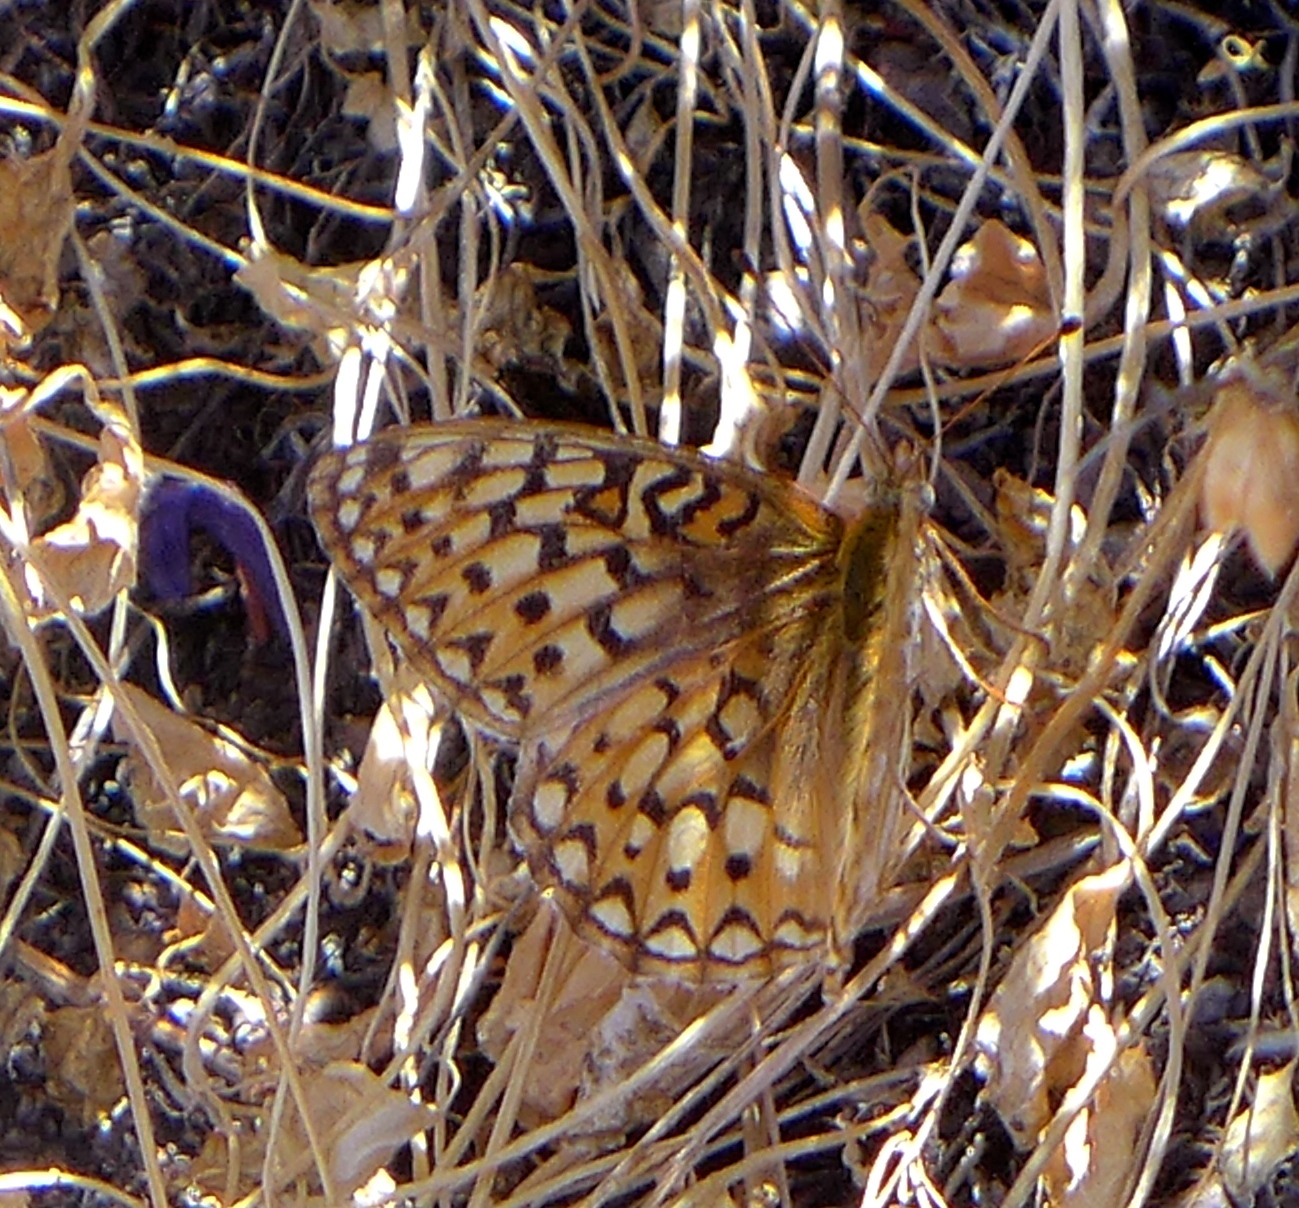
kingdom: Animalia
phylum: Arthropoda
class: Insecta
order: Lepidoptera
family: Nymphalidae
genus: Speyeria
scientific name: Speyeria callippe
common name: Callippe fritillary
